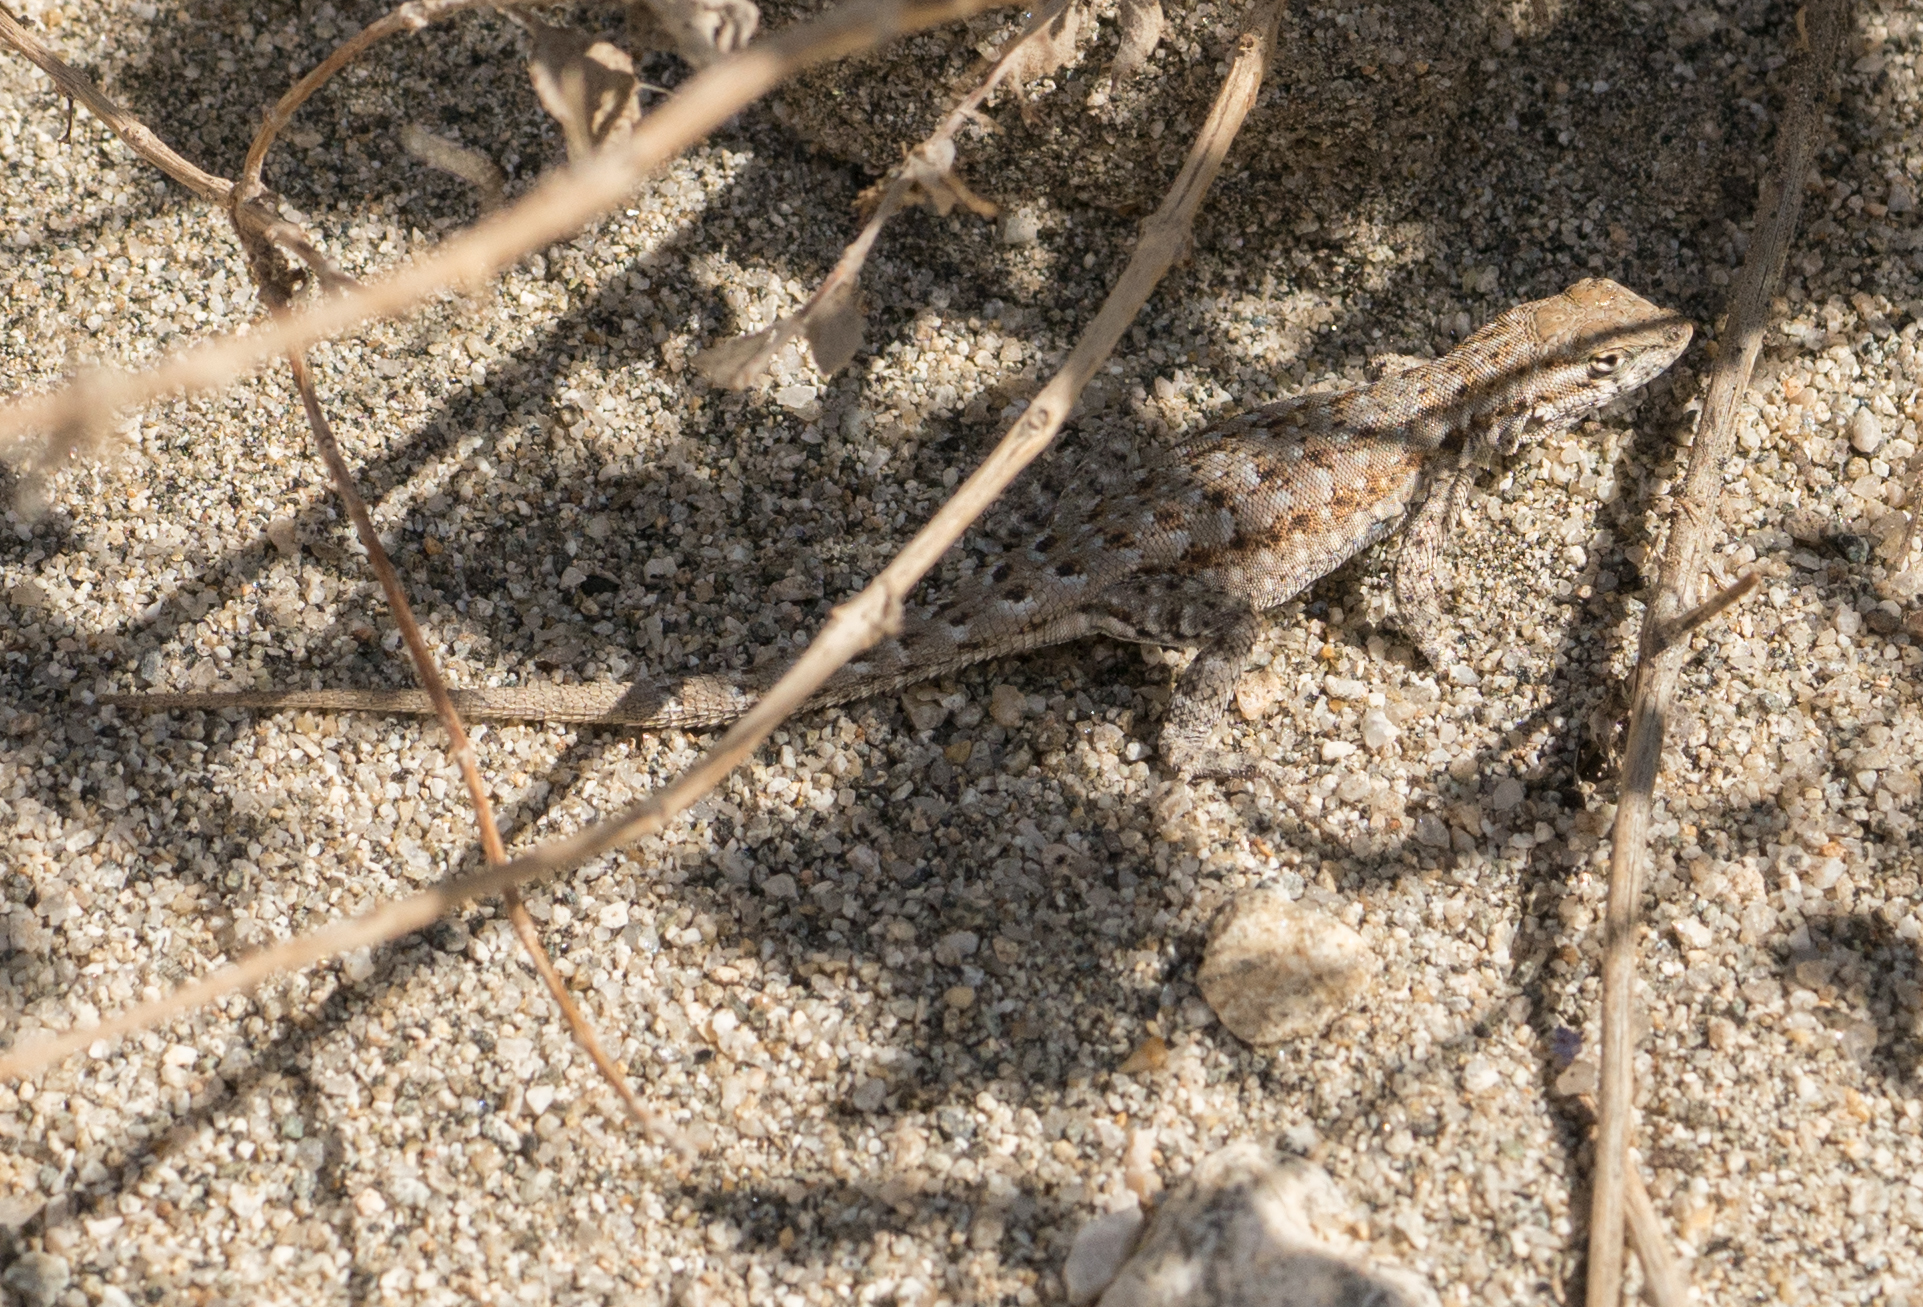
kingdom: Animalia
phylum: Chordata
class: Squamata
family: Phrynosomatidae
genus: Uta
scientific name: Uta stansburiana
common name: Side-blotched lizard
